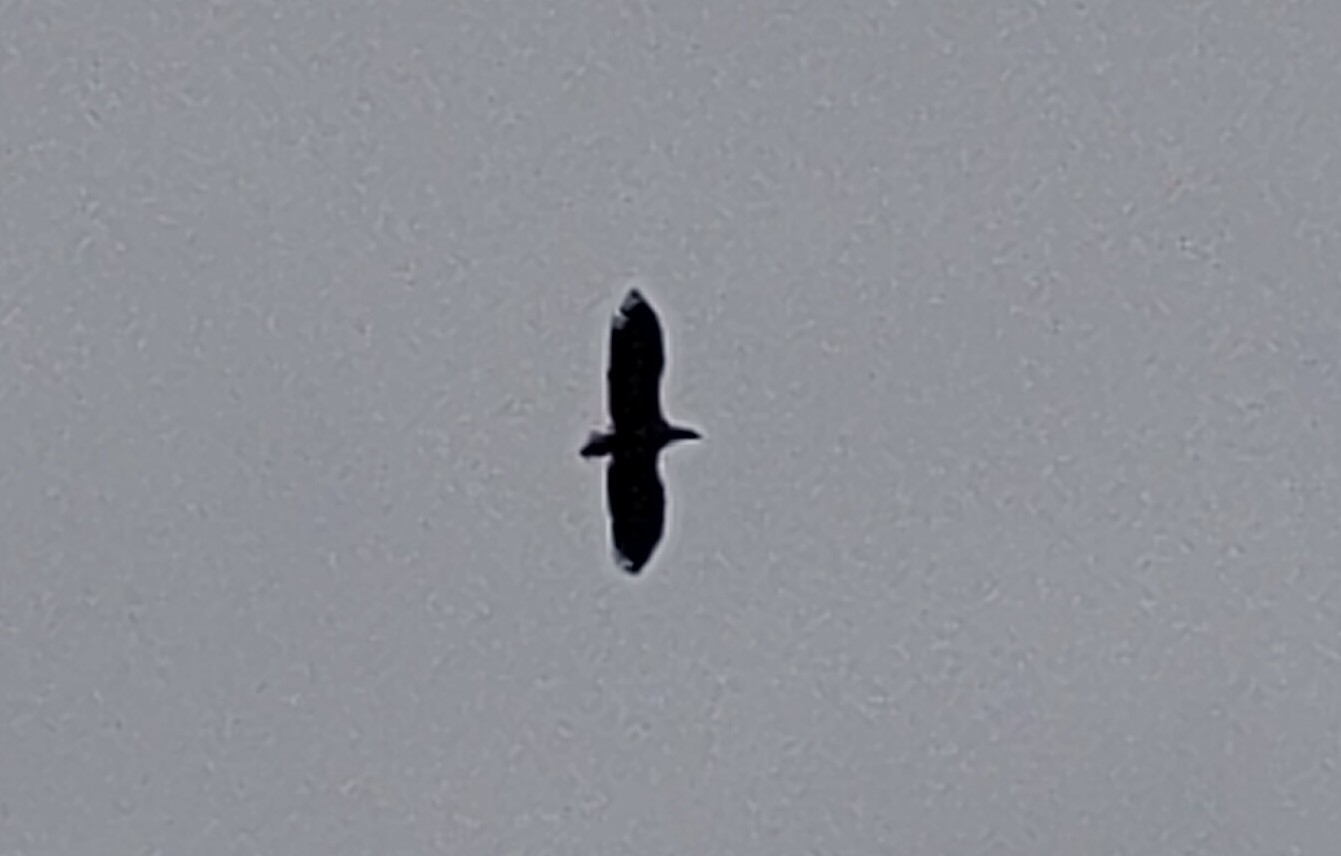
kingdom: Animalia
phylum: Chordata
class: Aves
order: Accipitriformes
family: Accipitridae
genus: Haliaeetus
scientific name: Haliaeetus albicilla
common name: White-tailed eagle
